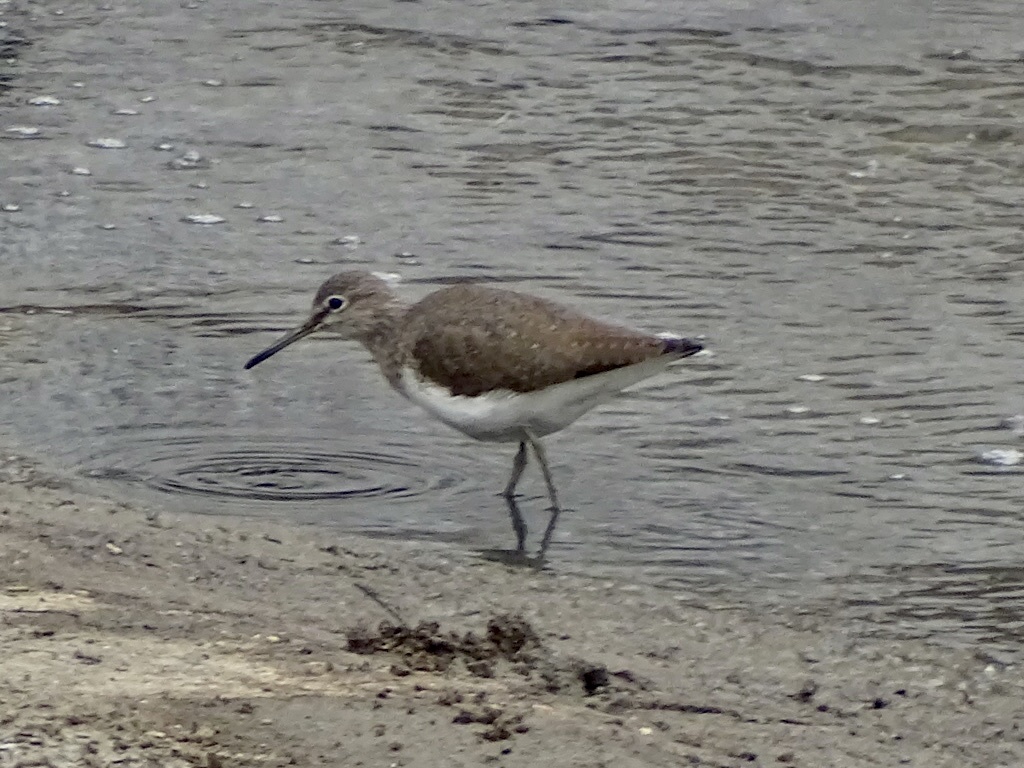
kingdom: Animalia
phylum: Chordata
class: Aves
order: Charadriiformes
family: Scolopacidae
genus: Tringa
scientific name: Tringa ochropus
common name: Green sandpiper
